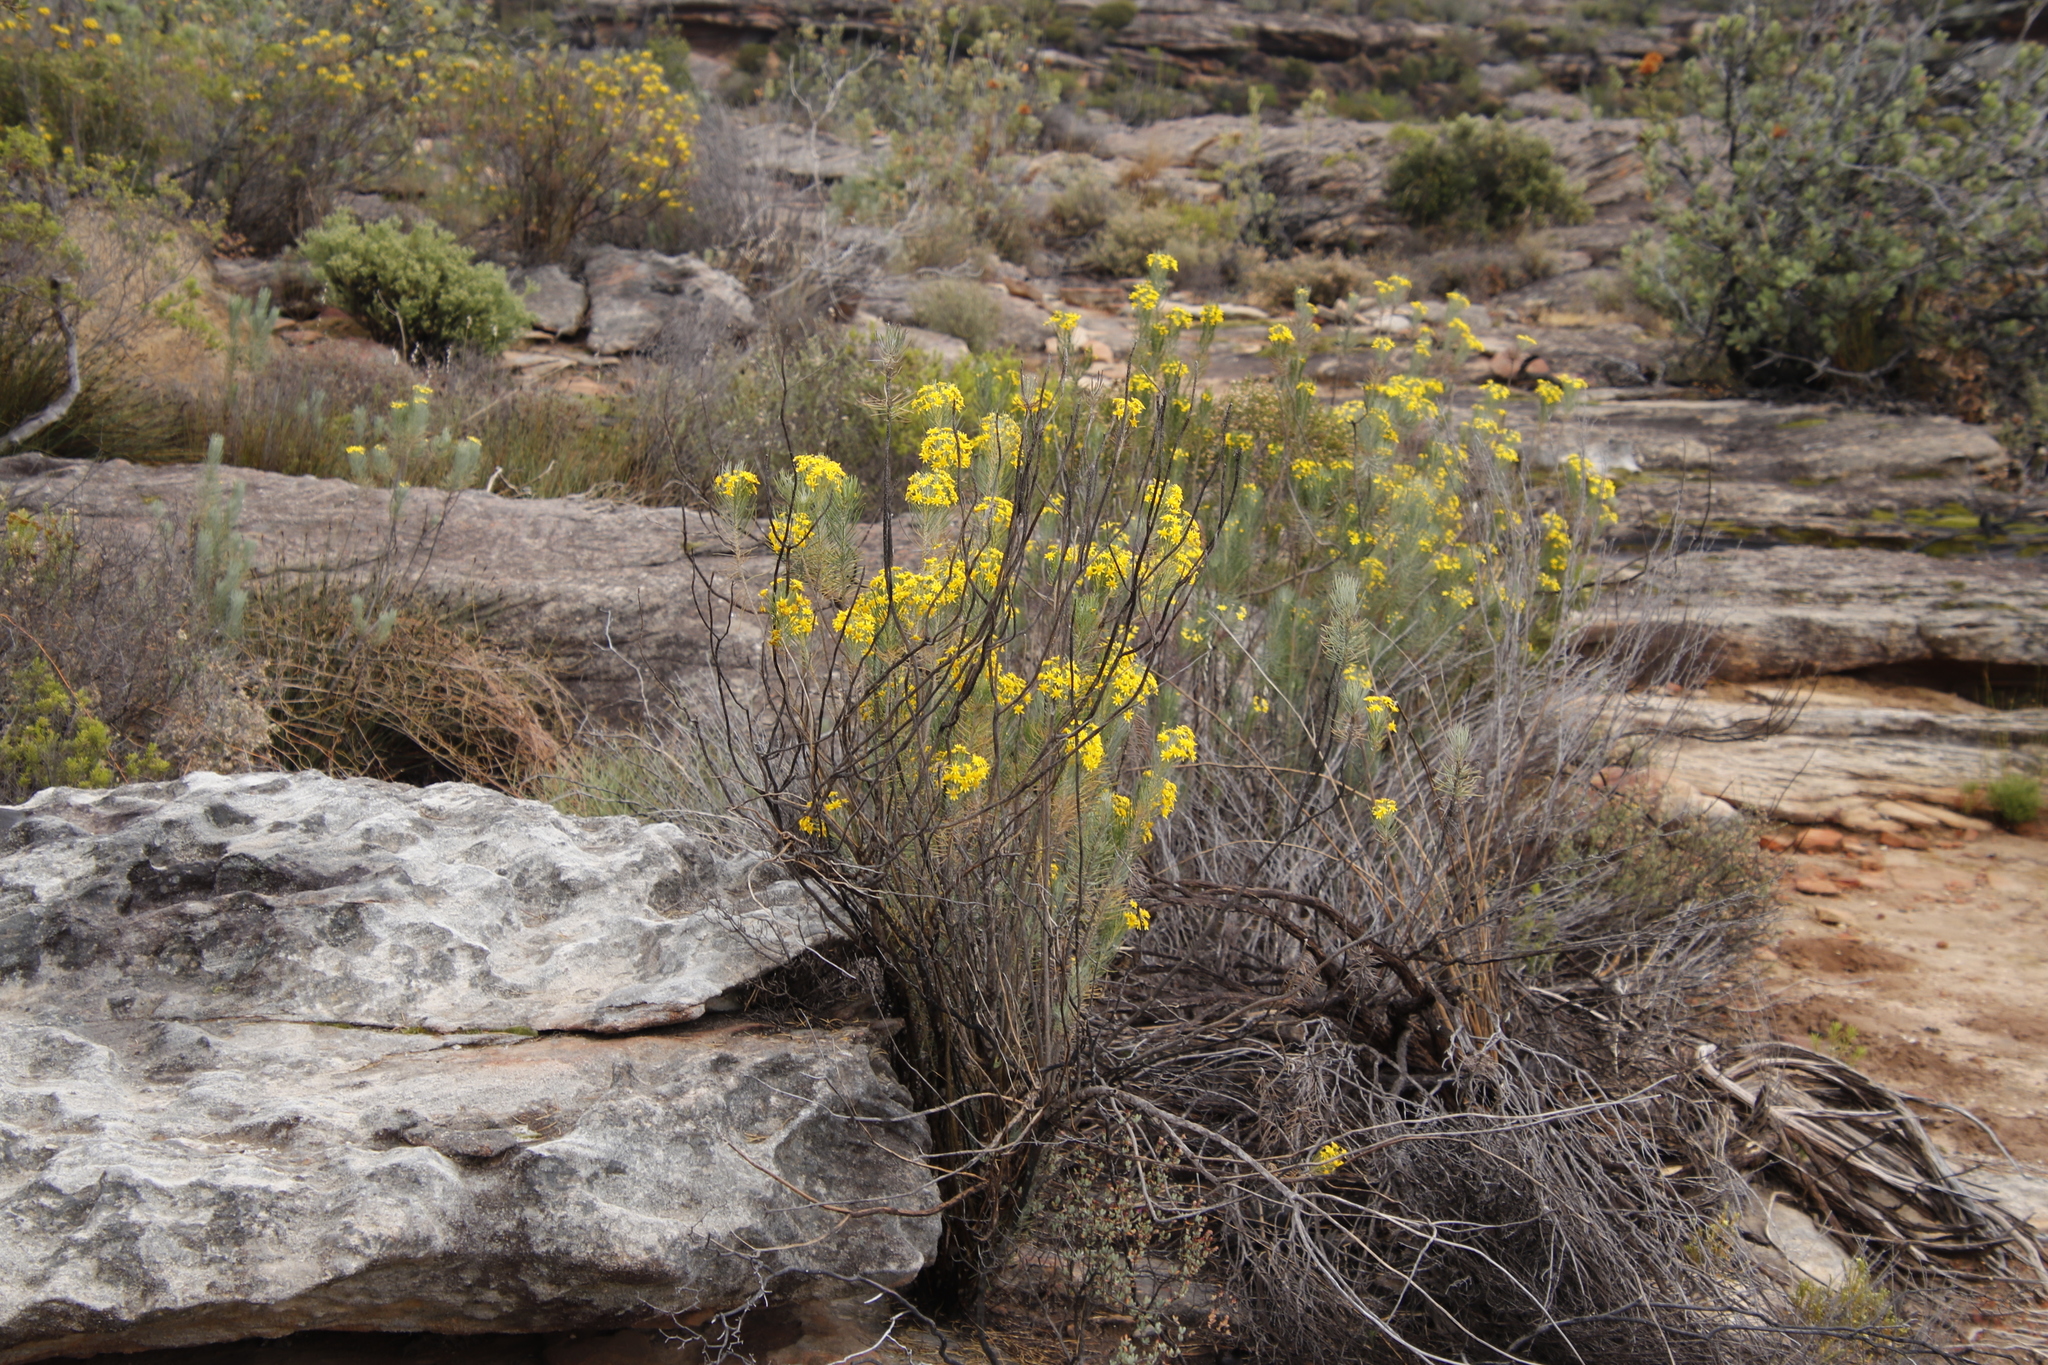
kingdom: Plantae
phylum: Tracheophyta
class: Magnoliopsida
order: Asterales
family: Asteraceae
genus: Euryops
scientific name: Euryops lateriflorus
